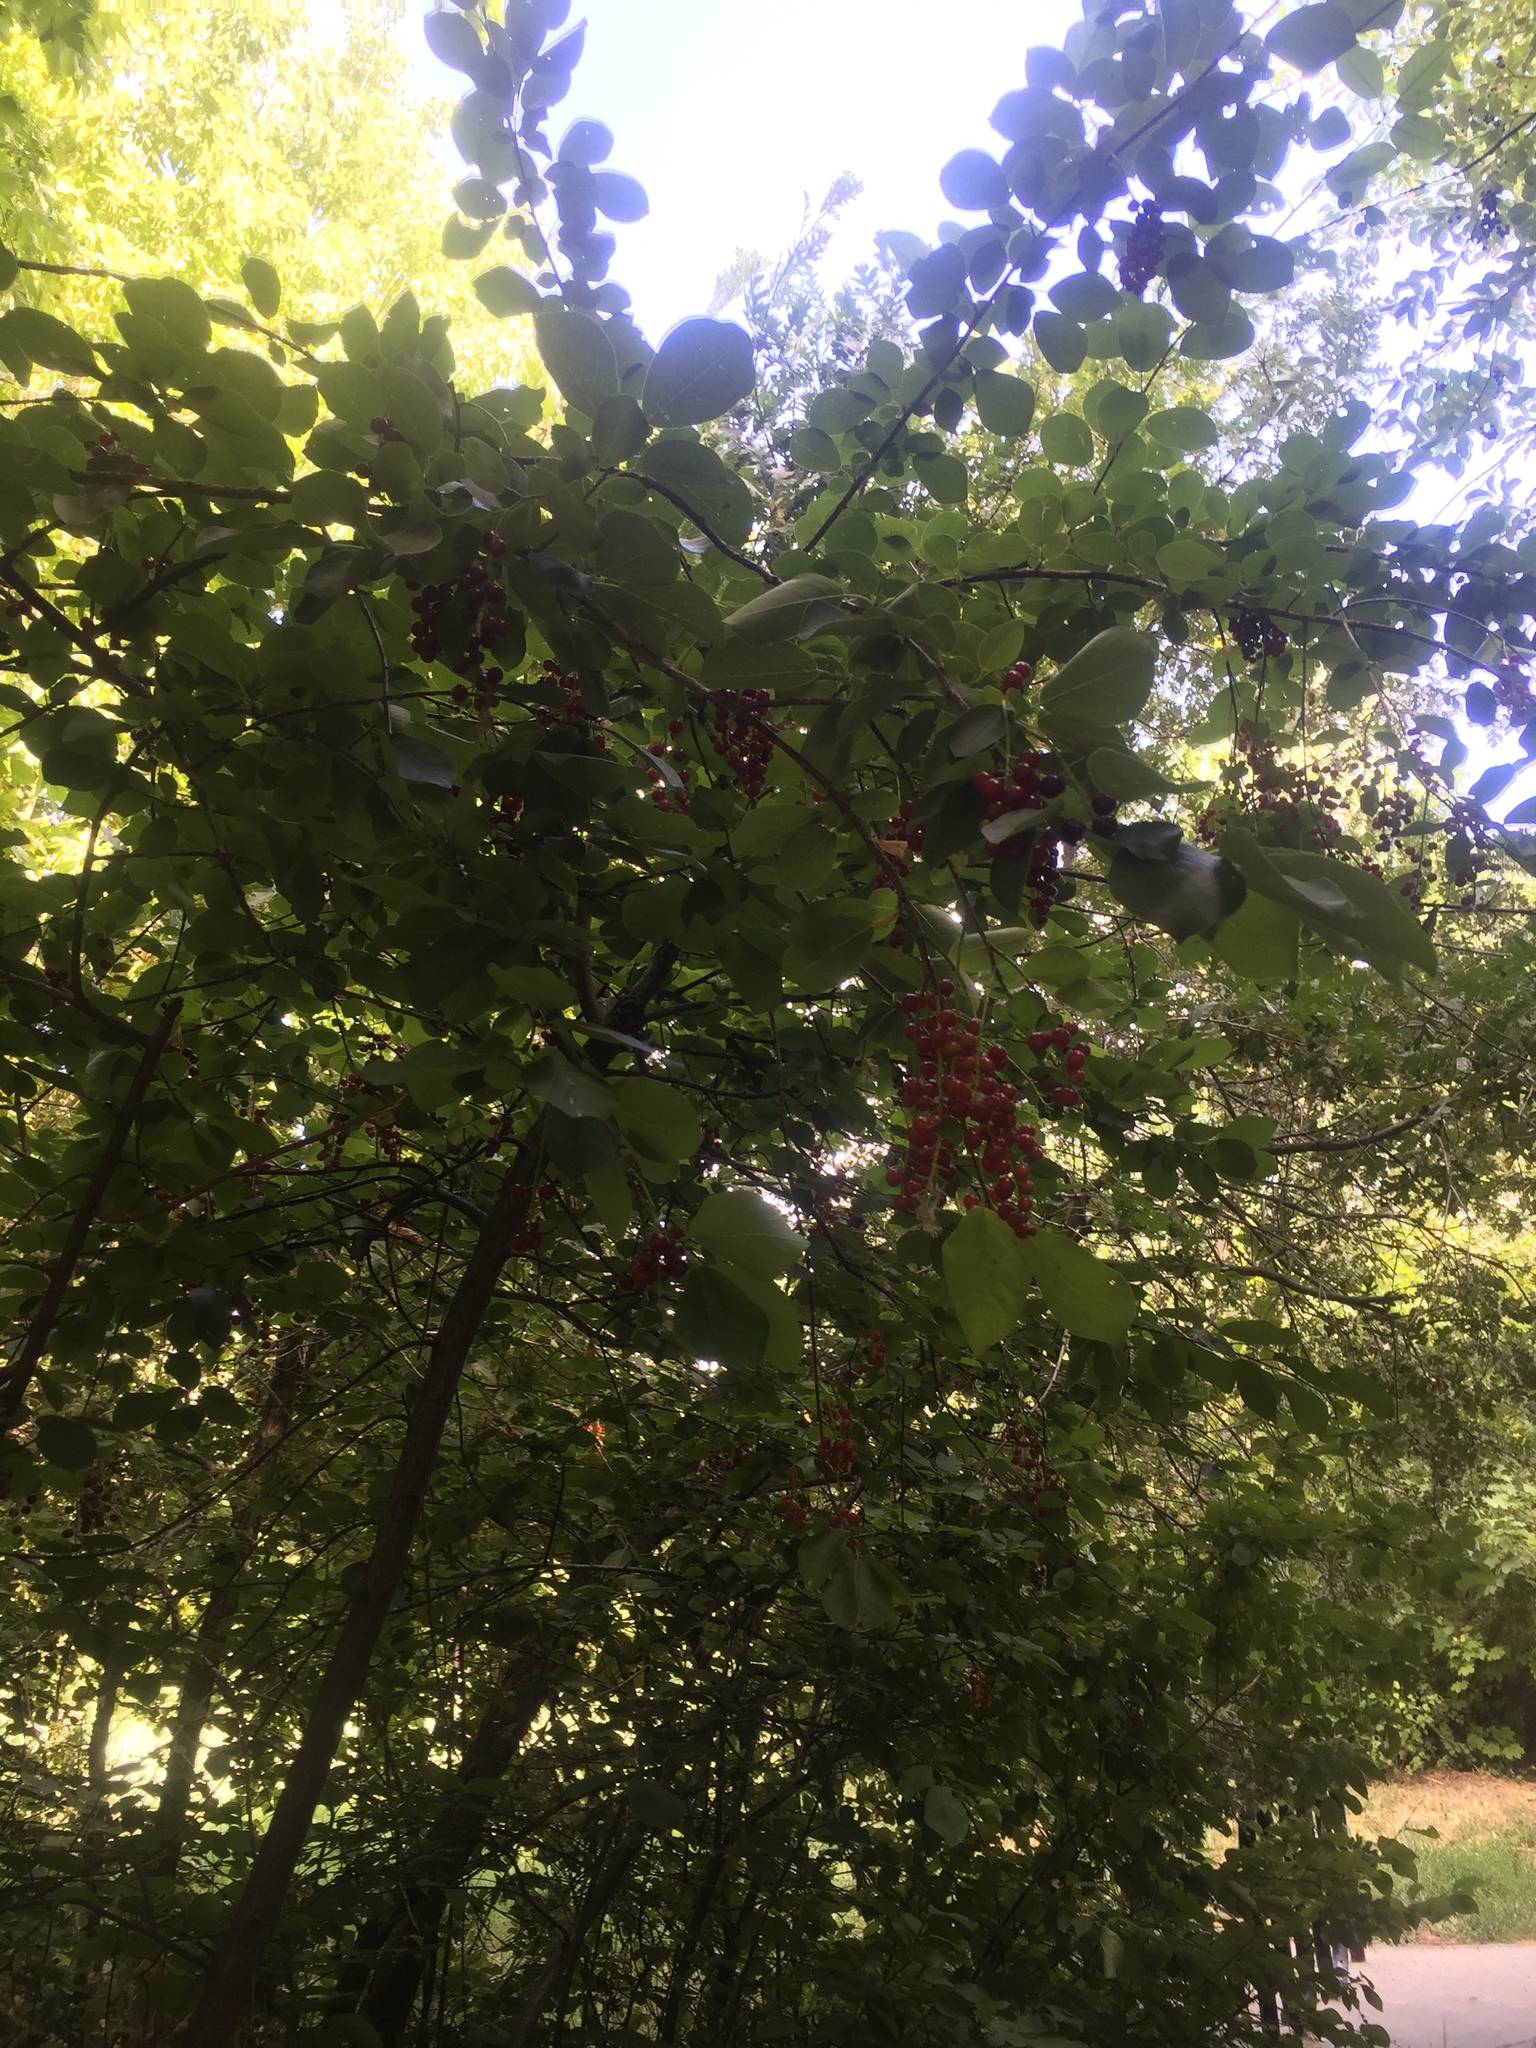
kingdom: Plantae
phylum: Tracheophyta
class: Magnoliopsida
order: Rosales
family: Rosaceae
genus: Prunus
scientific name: Prunus virginiana
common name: Chokecherry
